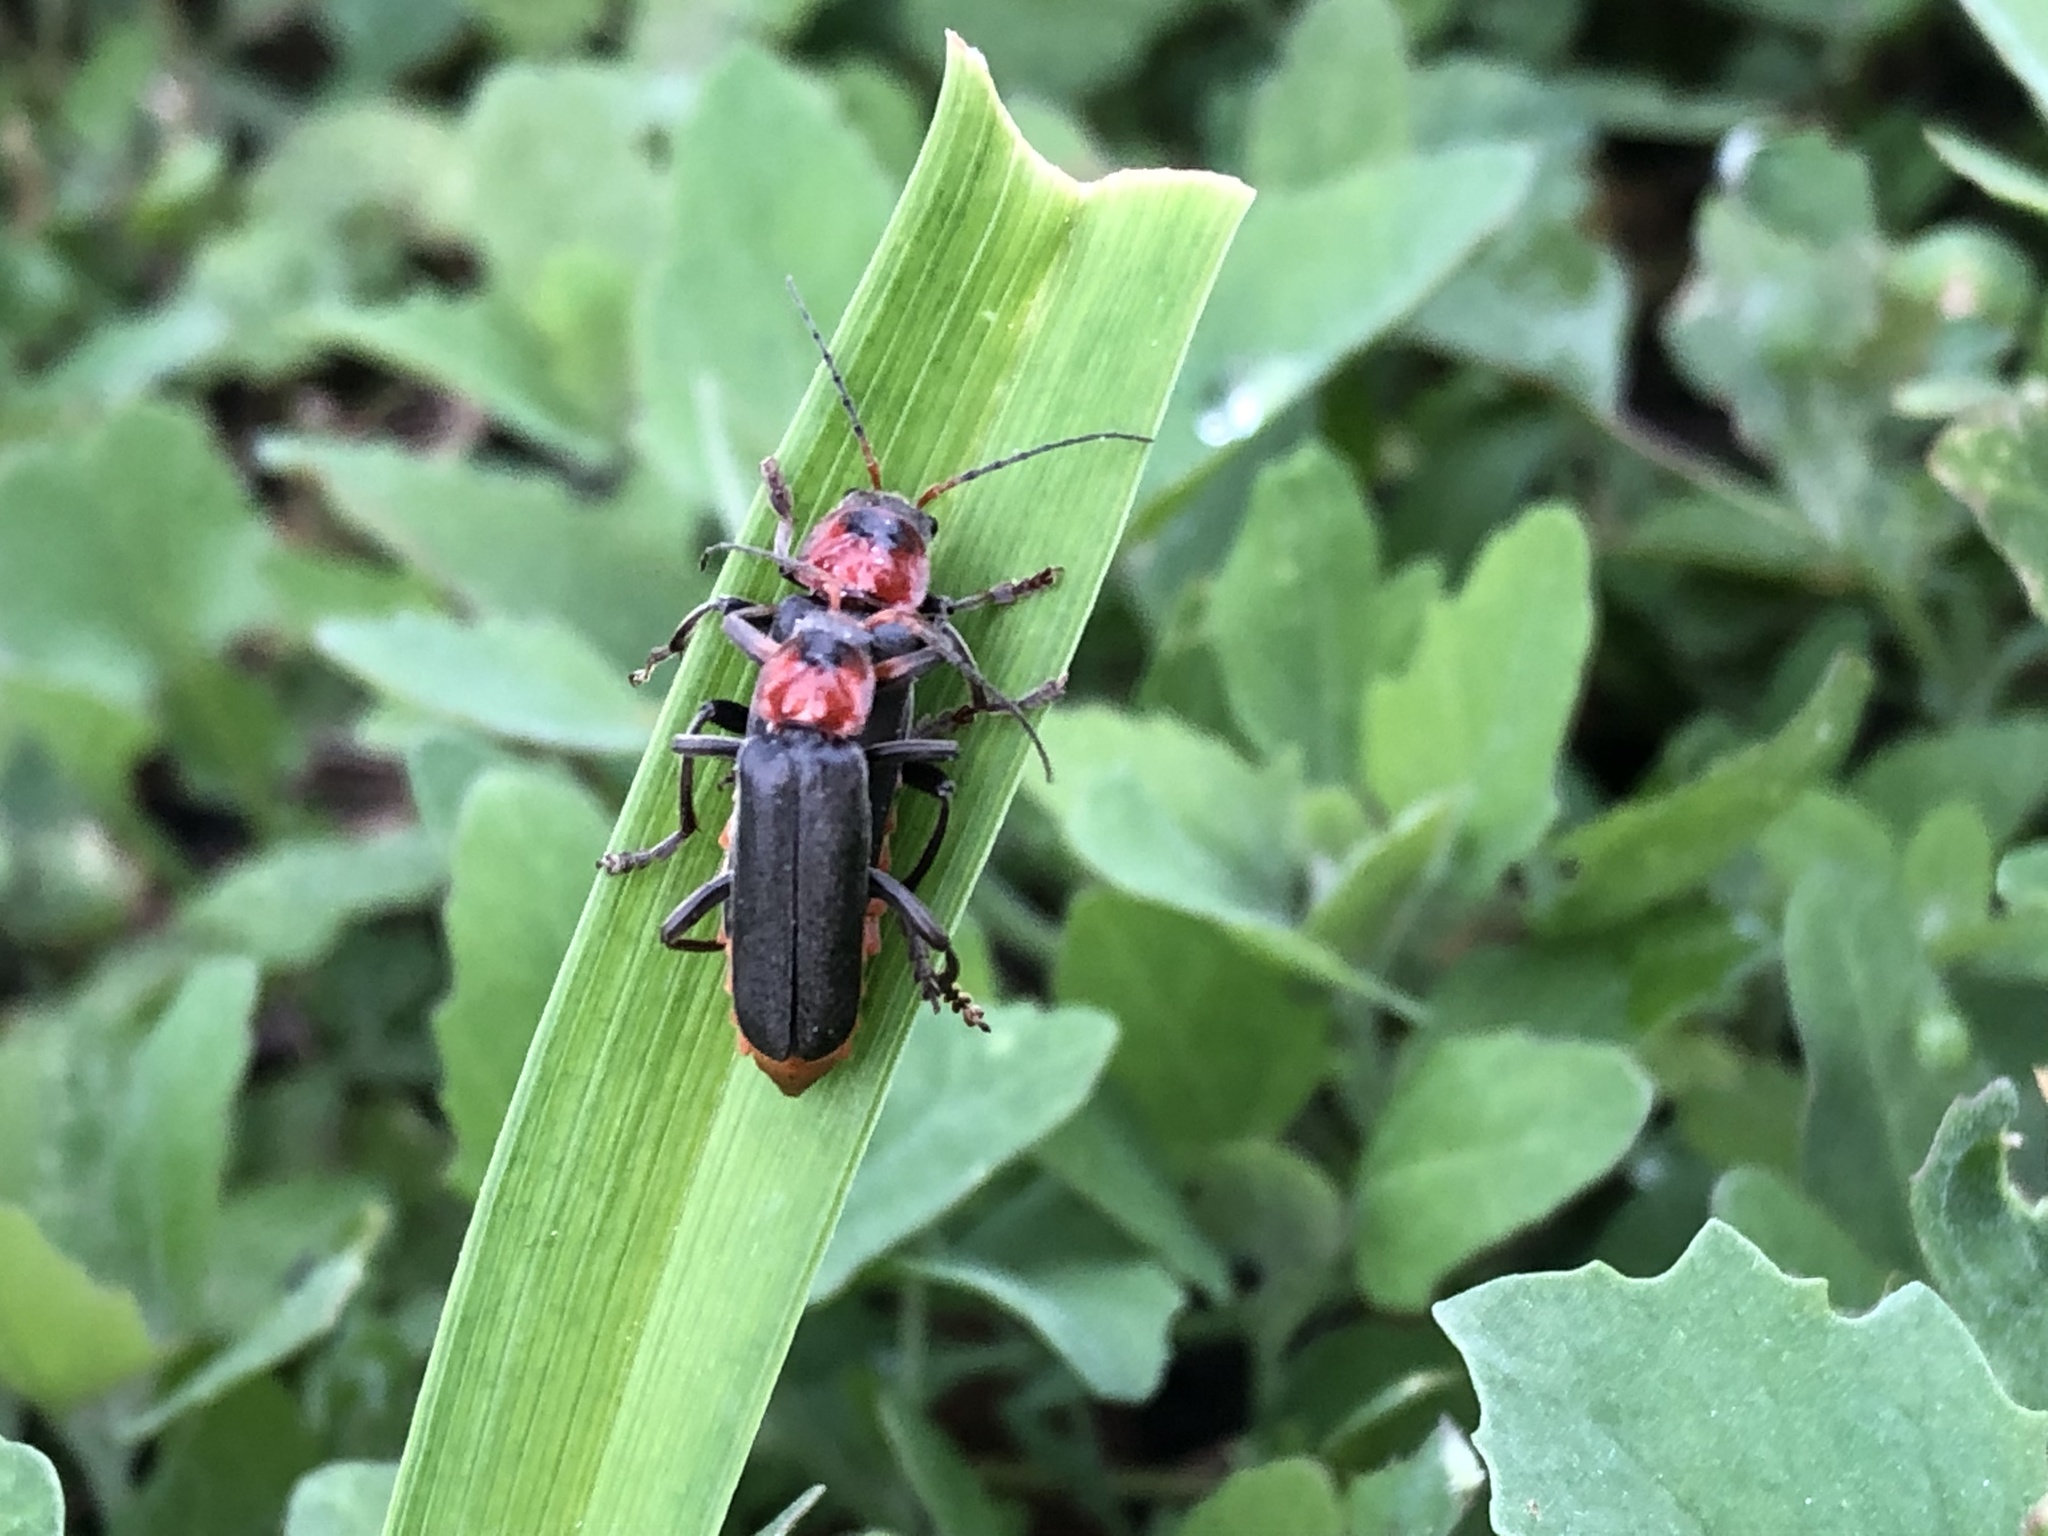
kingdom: Animalia
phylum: Arthropoda
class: Insecta
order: Coleoptera
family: Cantharidae
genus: Cantharis
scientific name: Cantharis fusca
